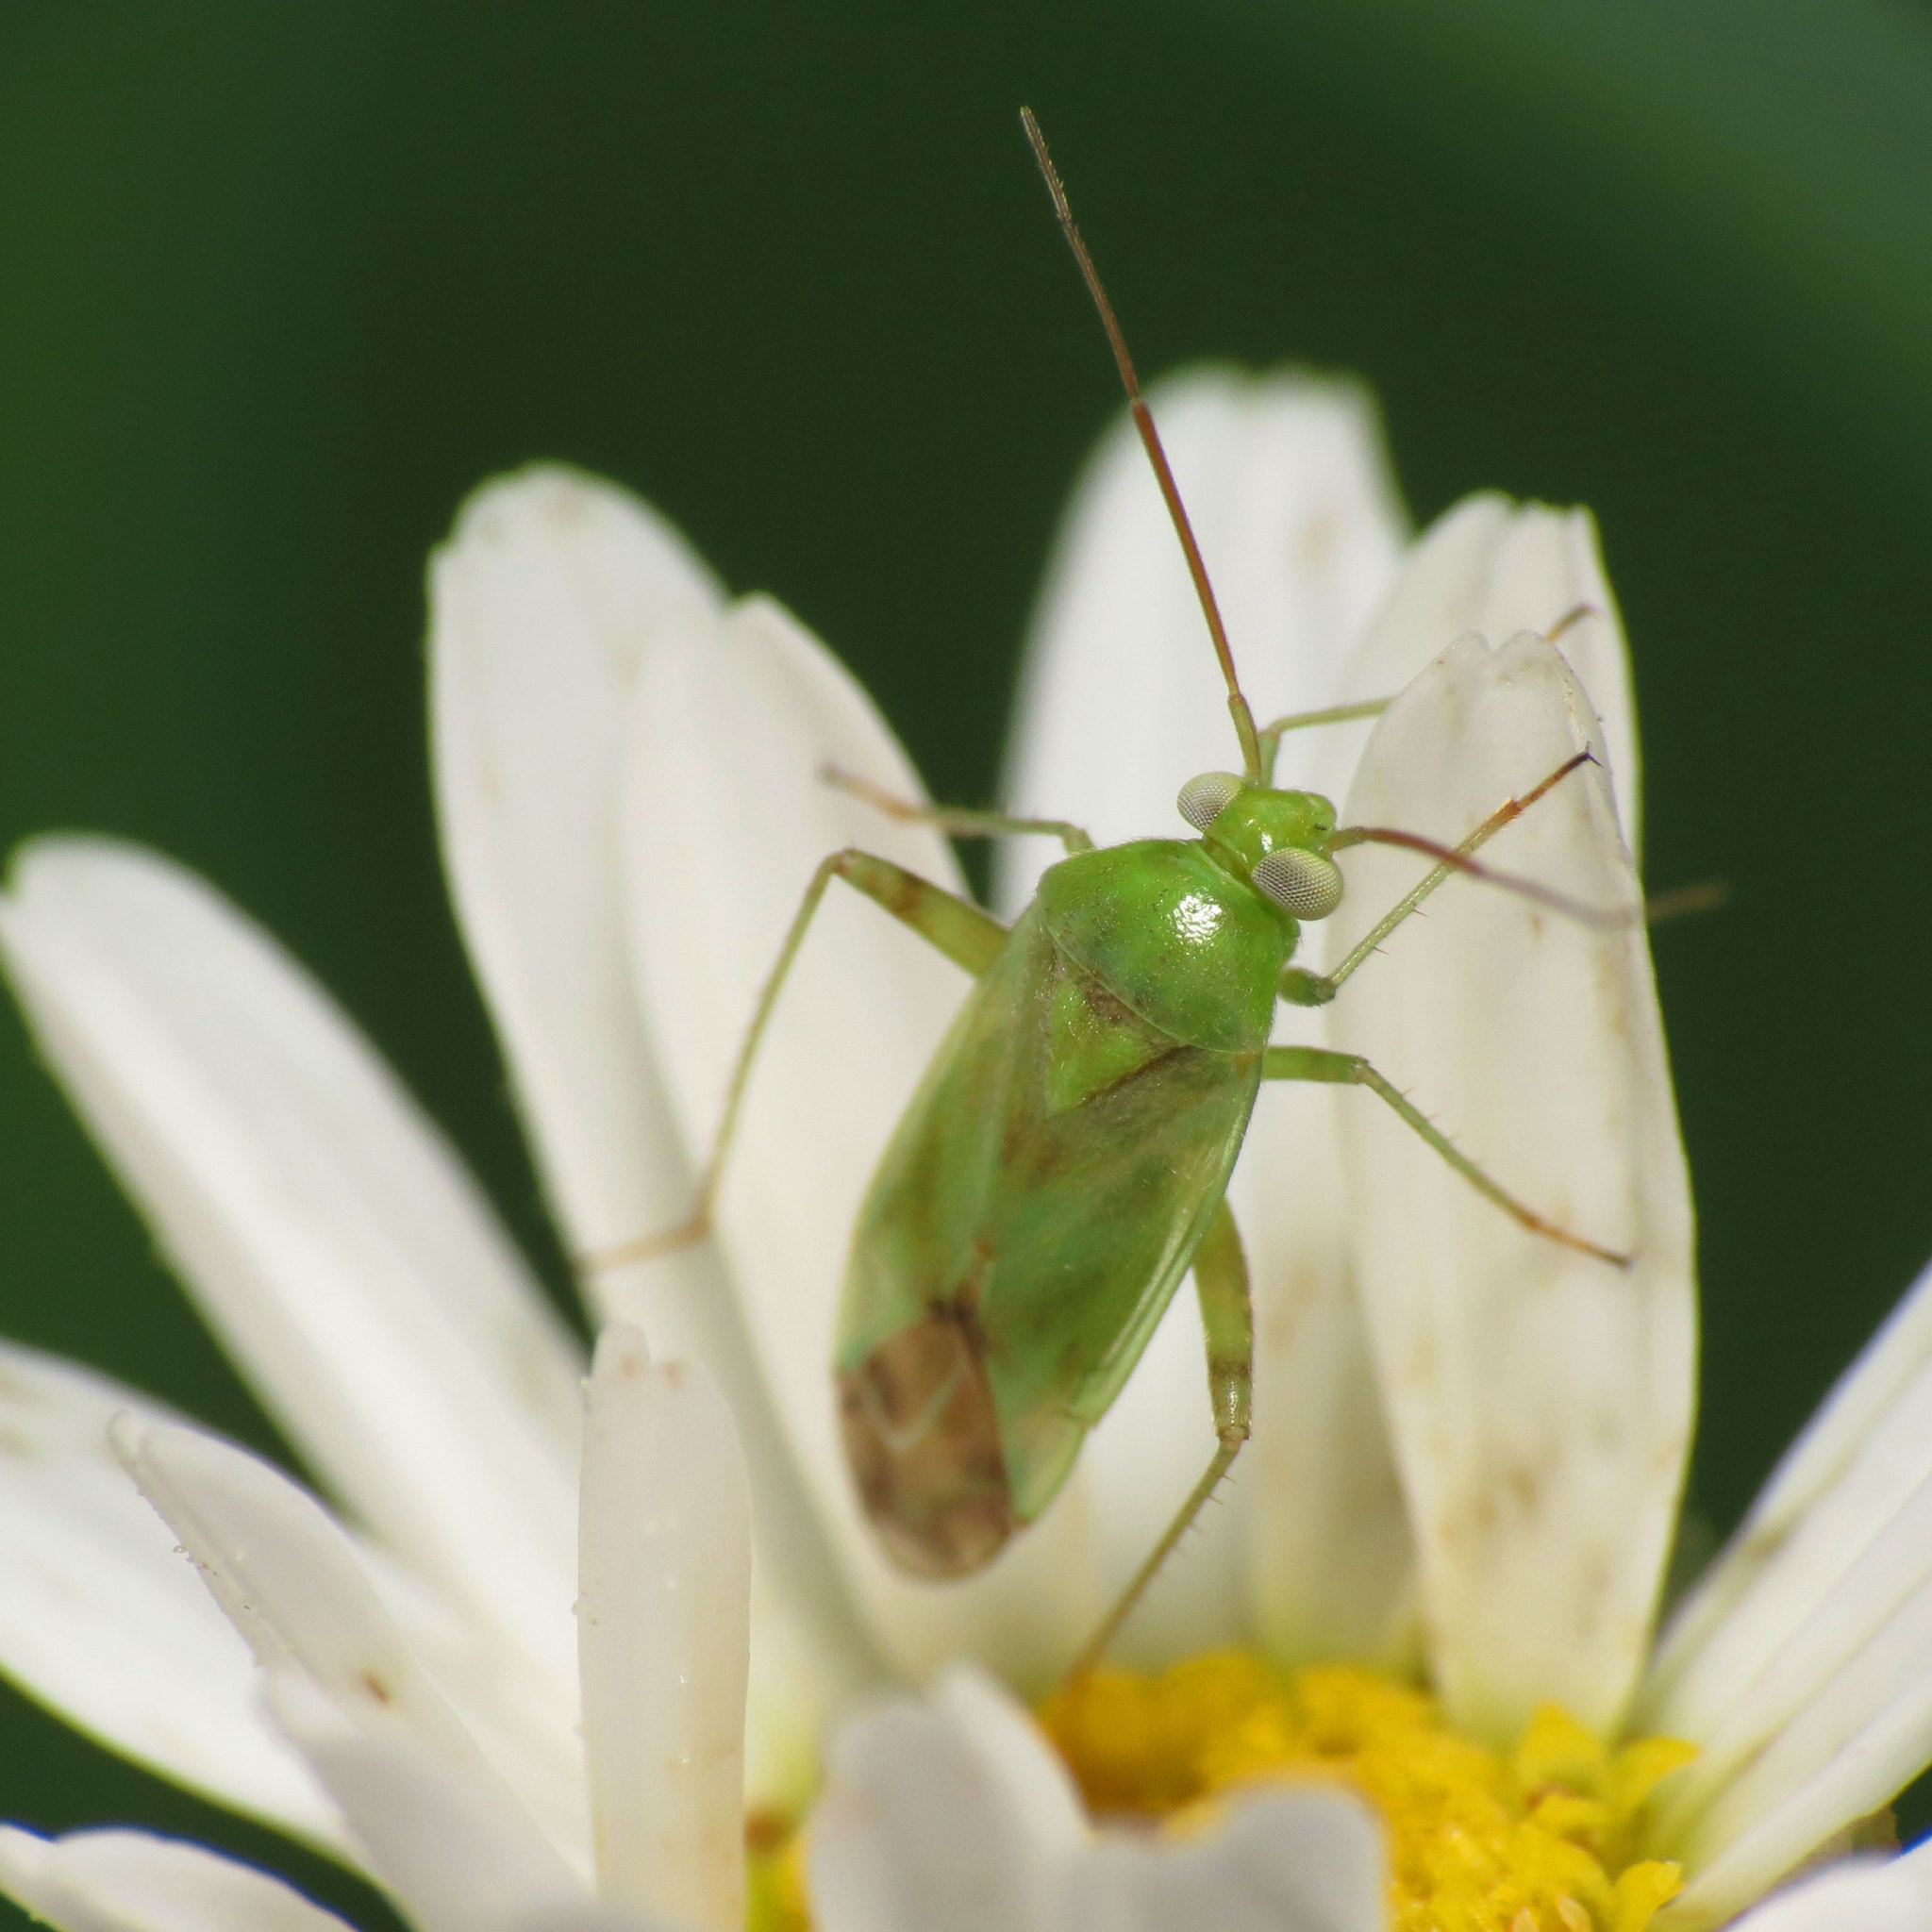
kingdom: Animalia
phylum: Arthropoda
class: Insecta
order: Hemiptera
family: Miridae
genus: Taylorilygus
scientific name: Taylorilygus apicalis
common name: Plant bug
